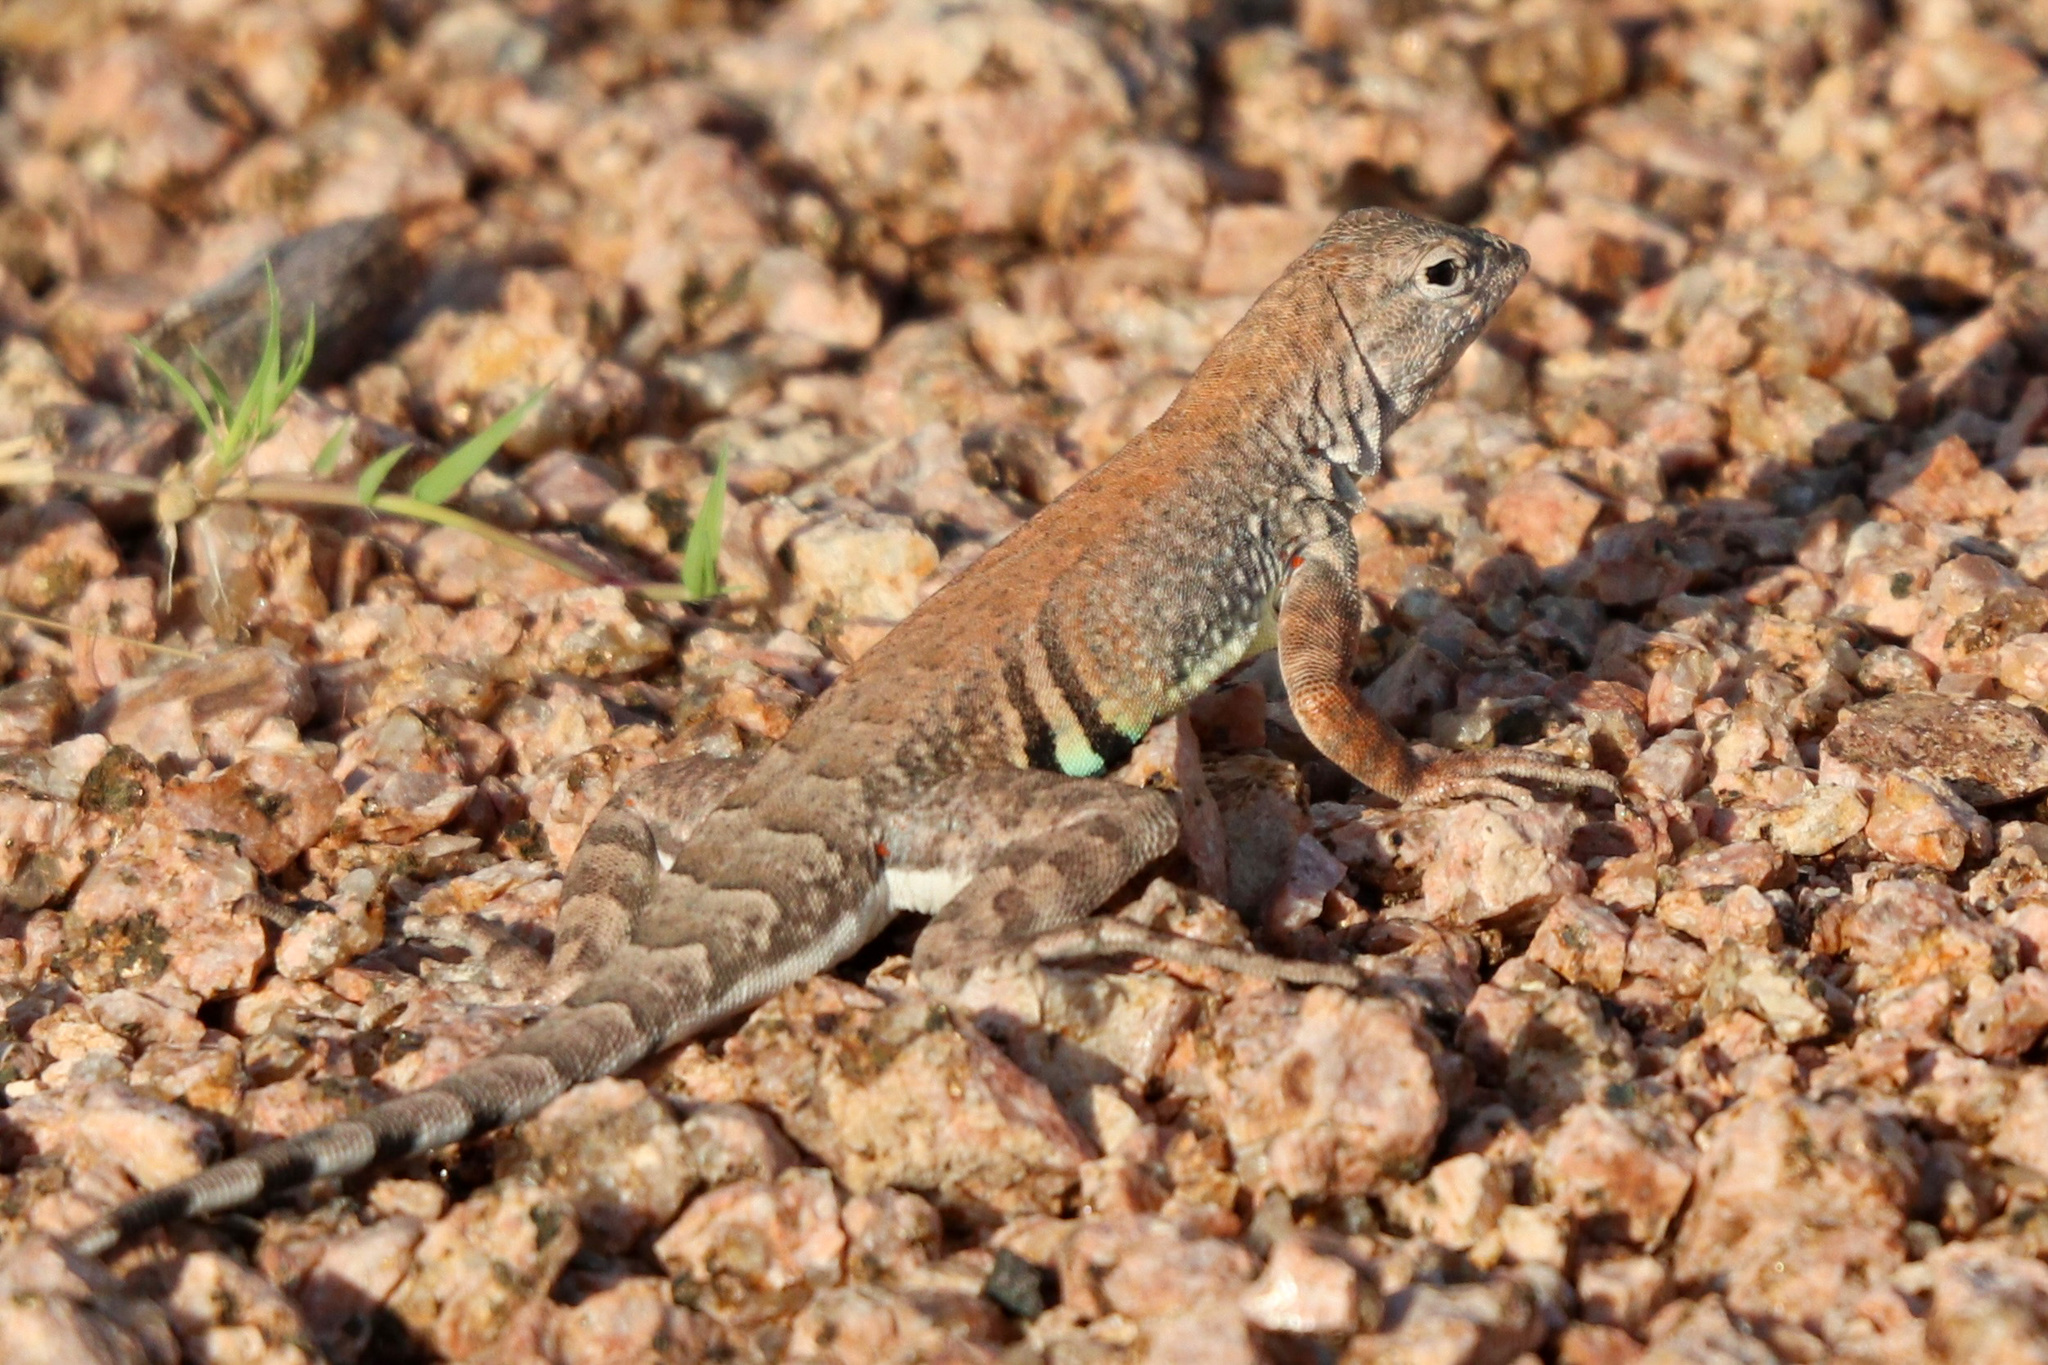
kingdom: Animalia
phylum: Chordata
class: Squamata
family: Phrynosomatidae
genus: Cophosaurus
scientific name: Cophosaurus texanus
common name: Greater earless lizard
